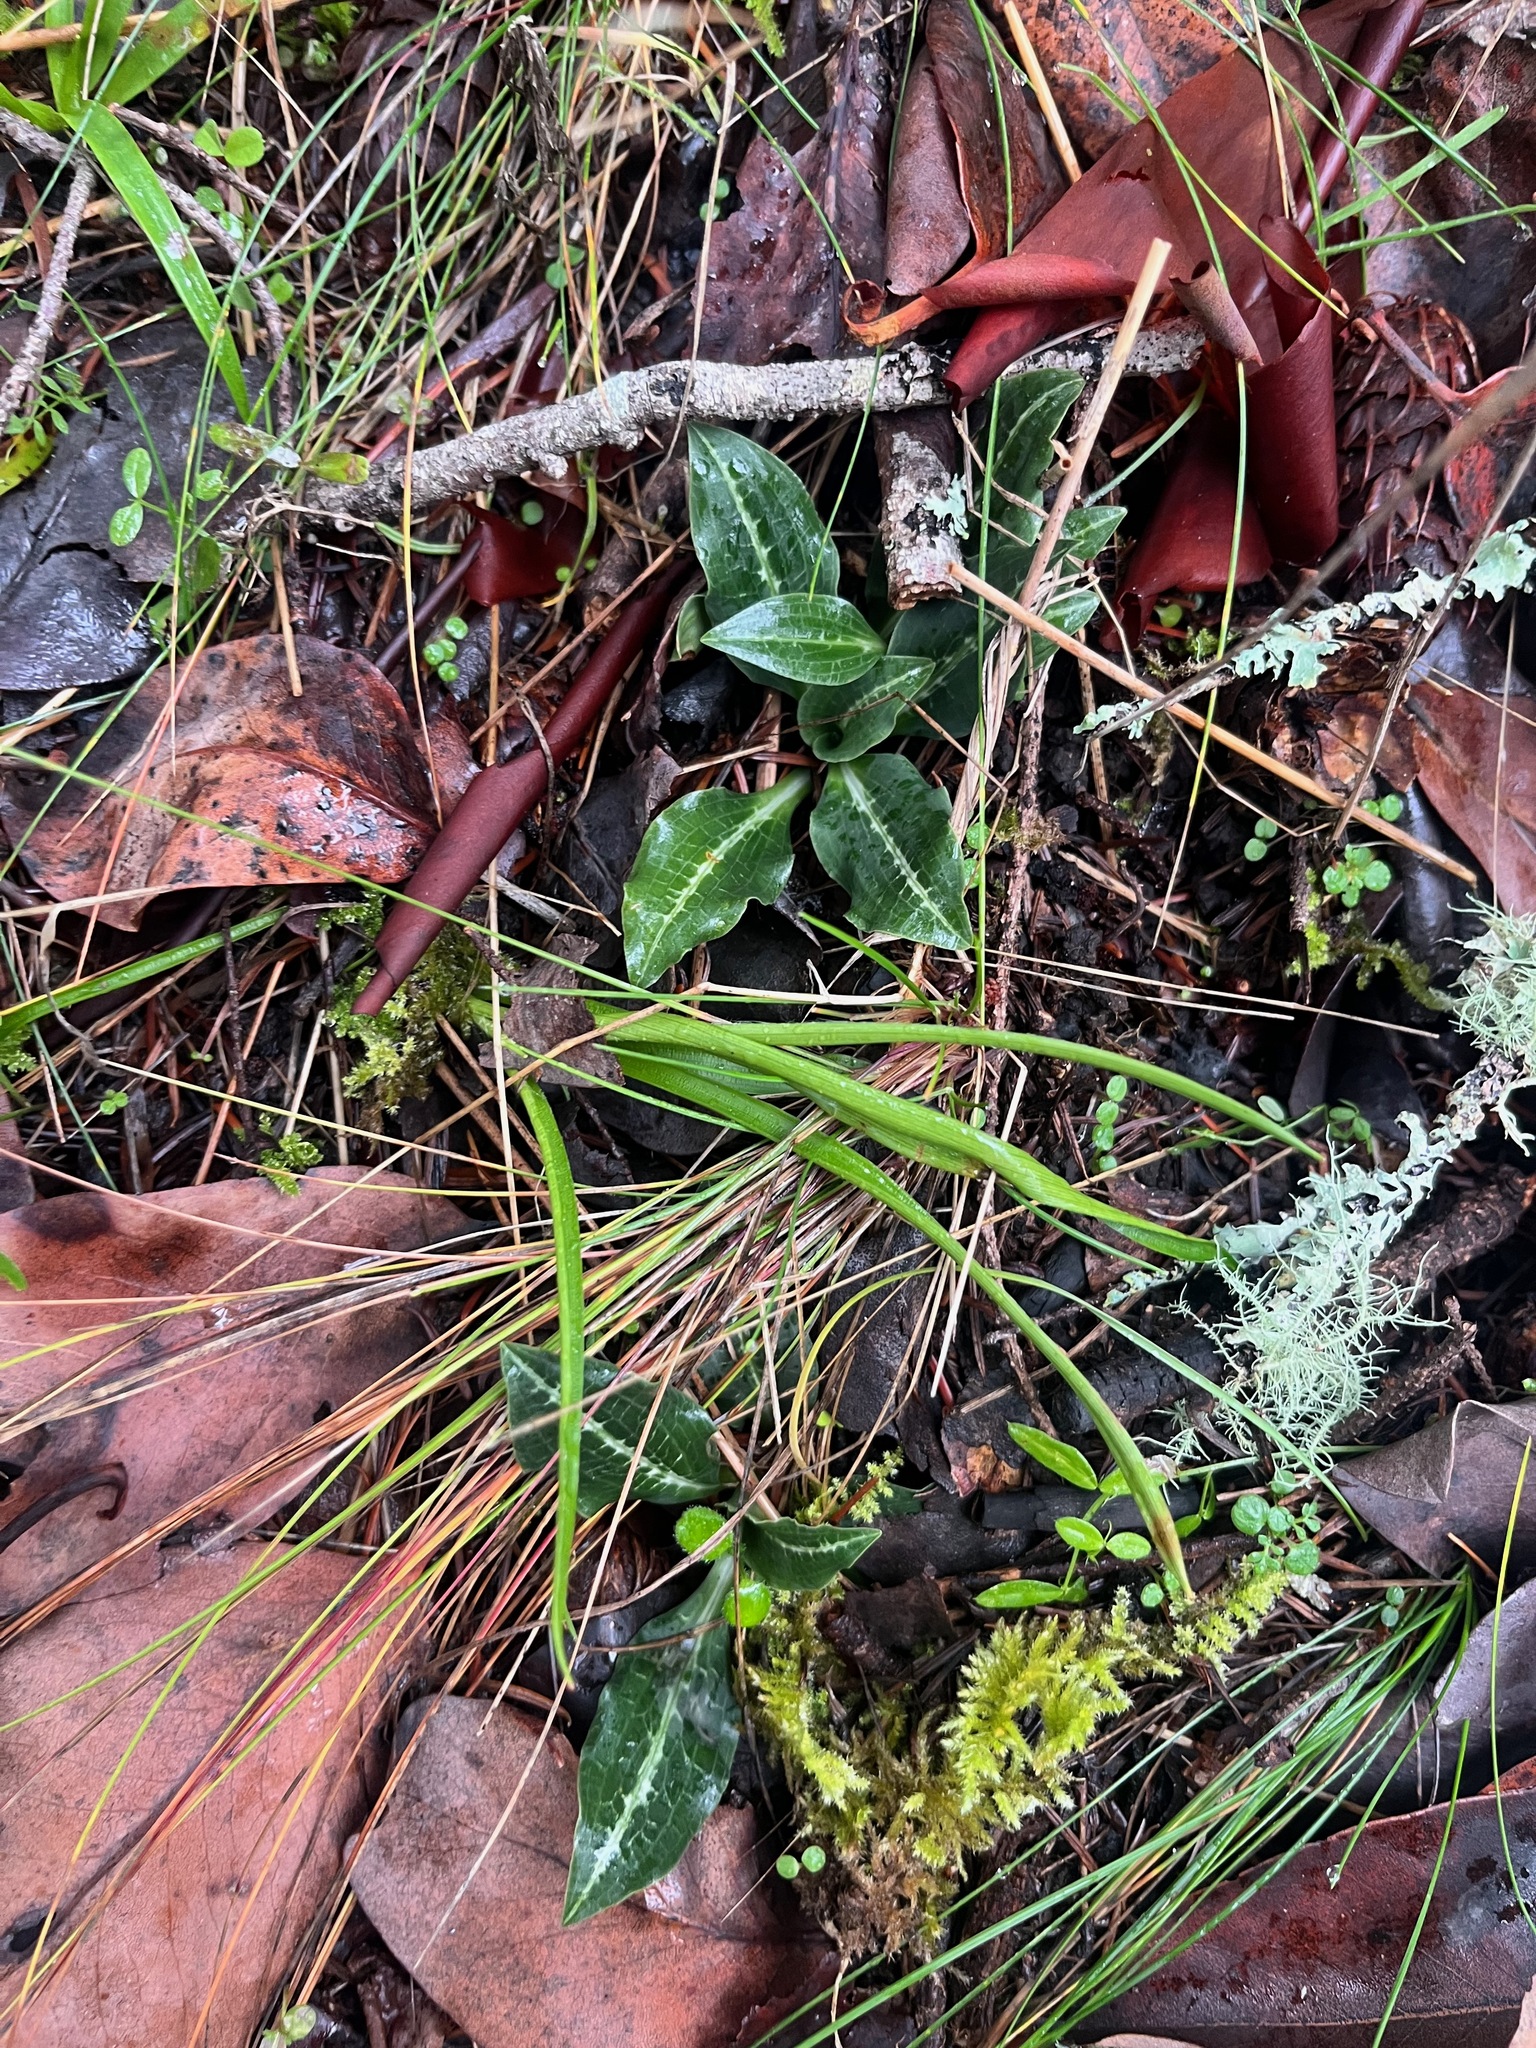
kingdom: Plantae
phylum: Tracheophyta
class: Liliopsida
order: Asparagales
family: Orchidaceae
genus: Goodyera
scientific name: Goodyera oblongifolia
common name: Giant rattlesnake-plantain
